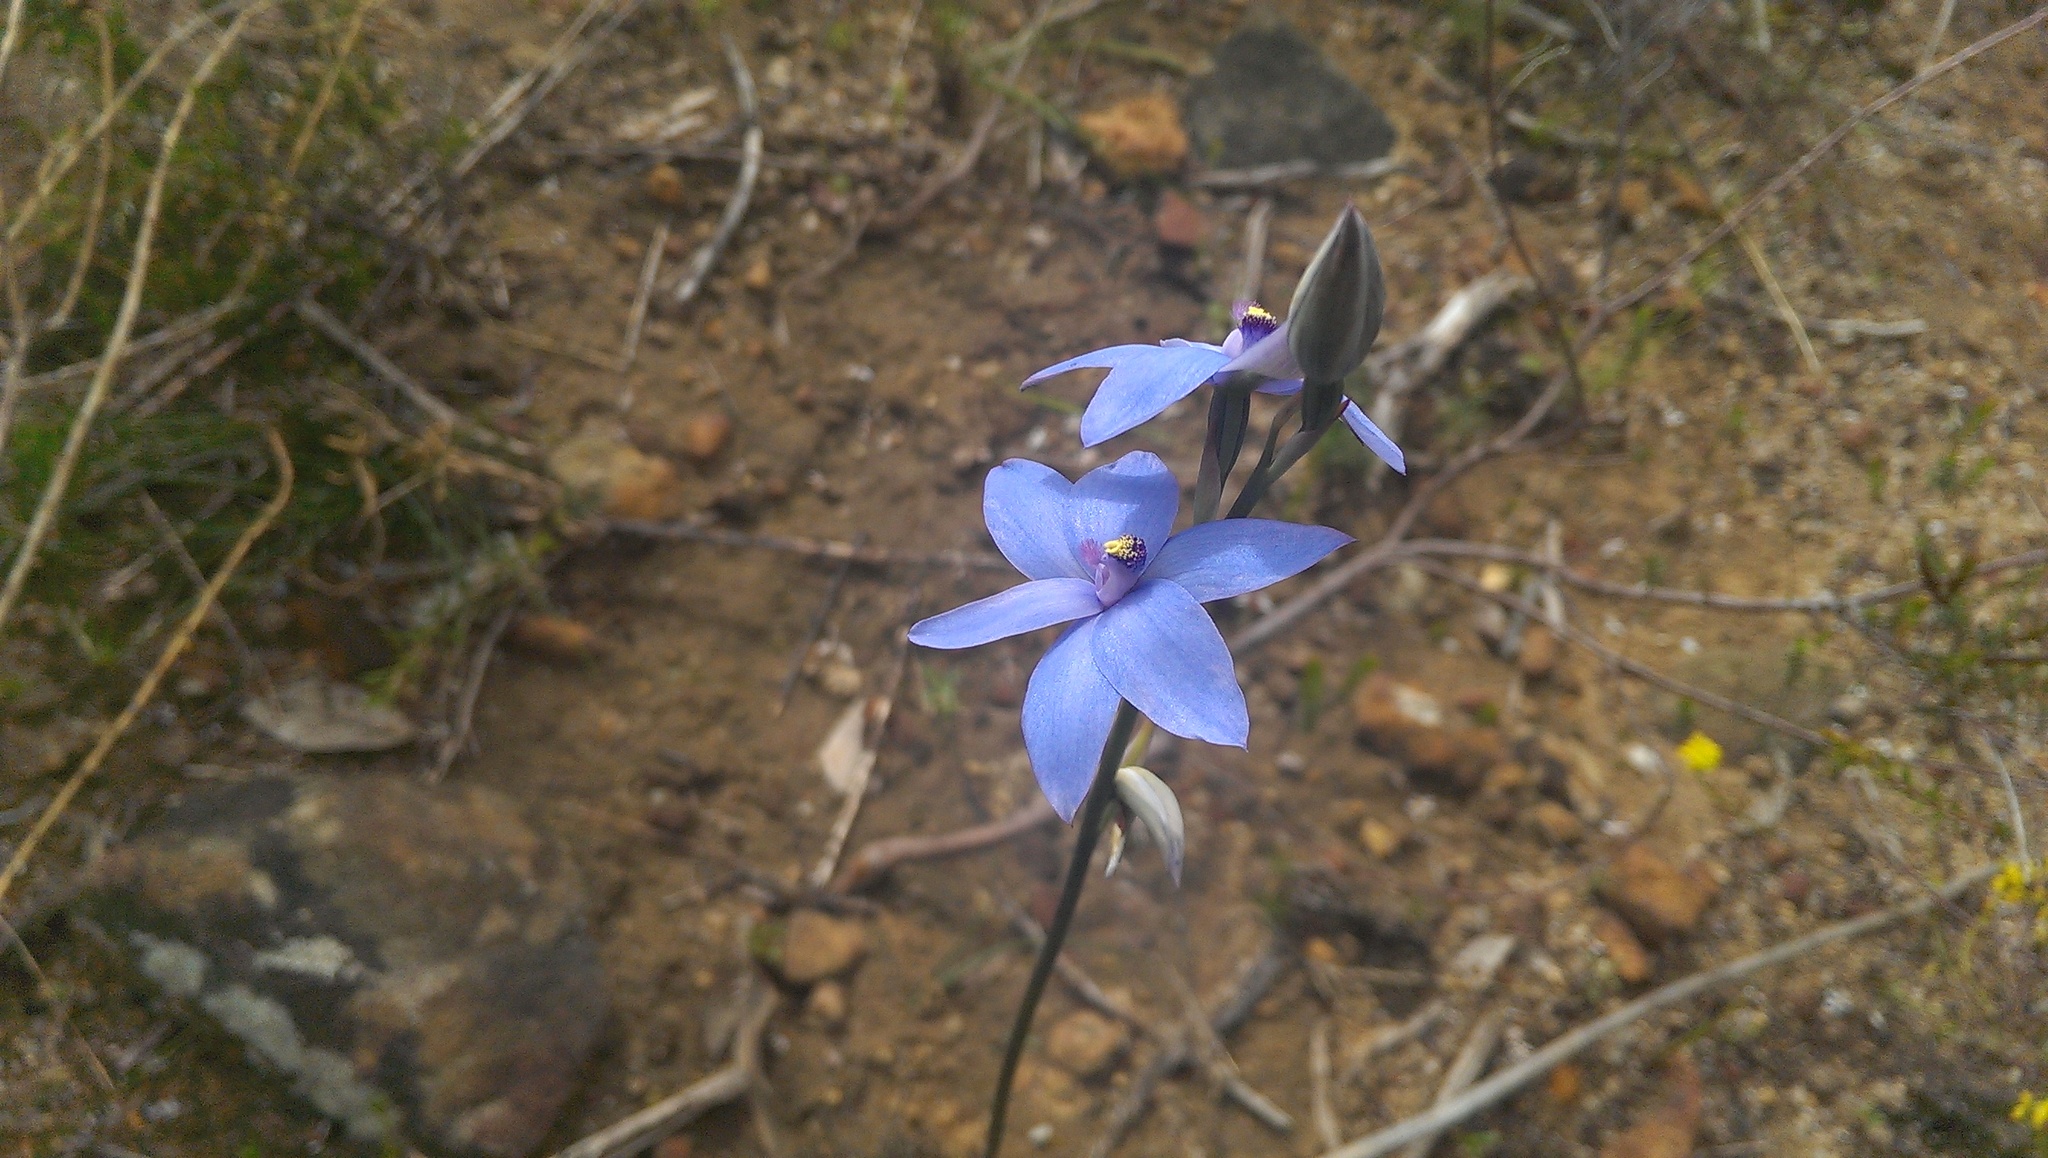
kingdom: Plantae
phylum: Tracheophyta
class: Liliopsida
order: Asparagales
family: Orchidaceae
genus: Thelymitra
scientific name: Thelymitra crinita
